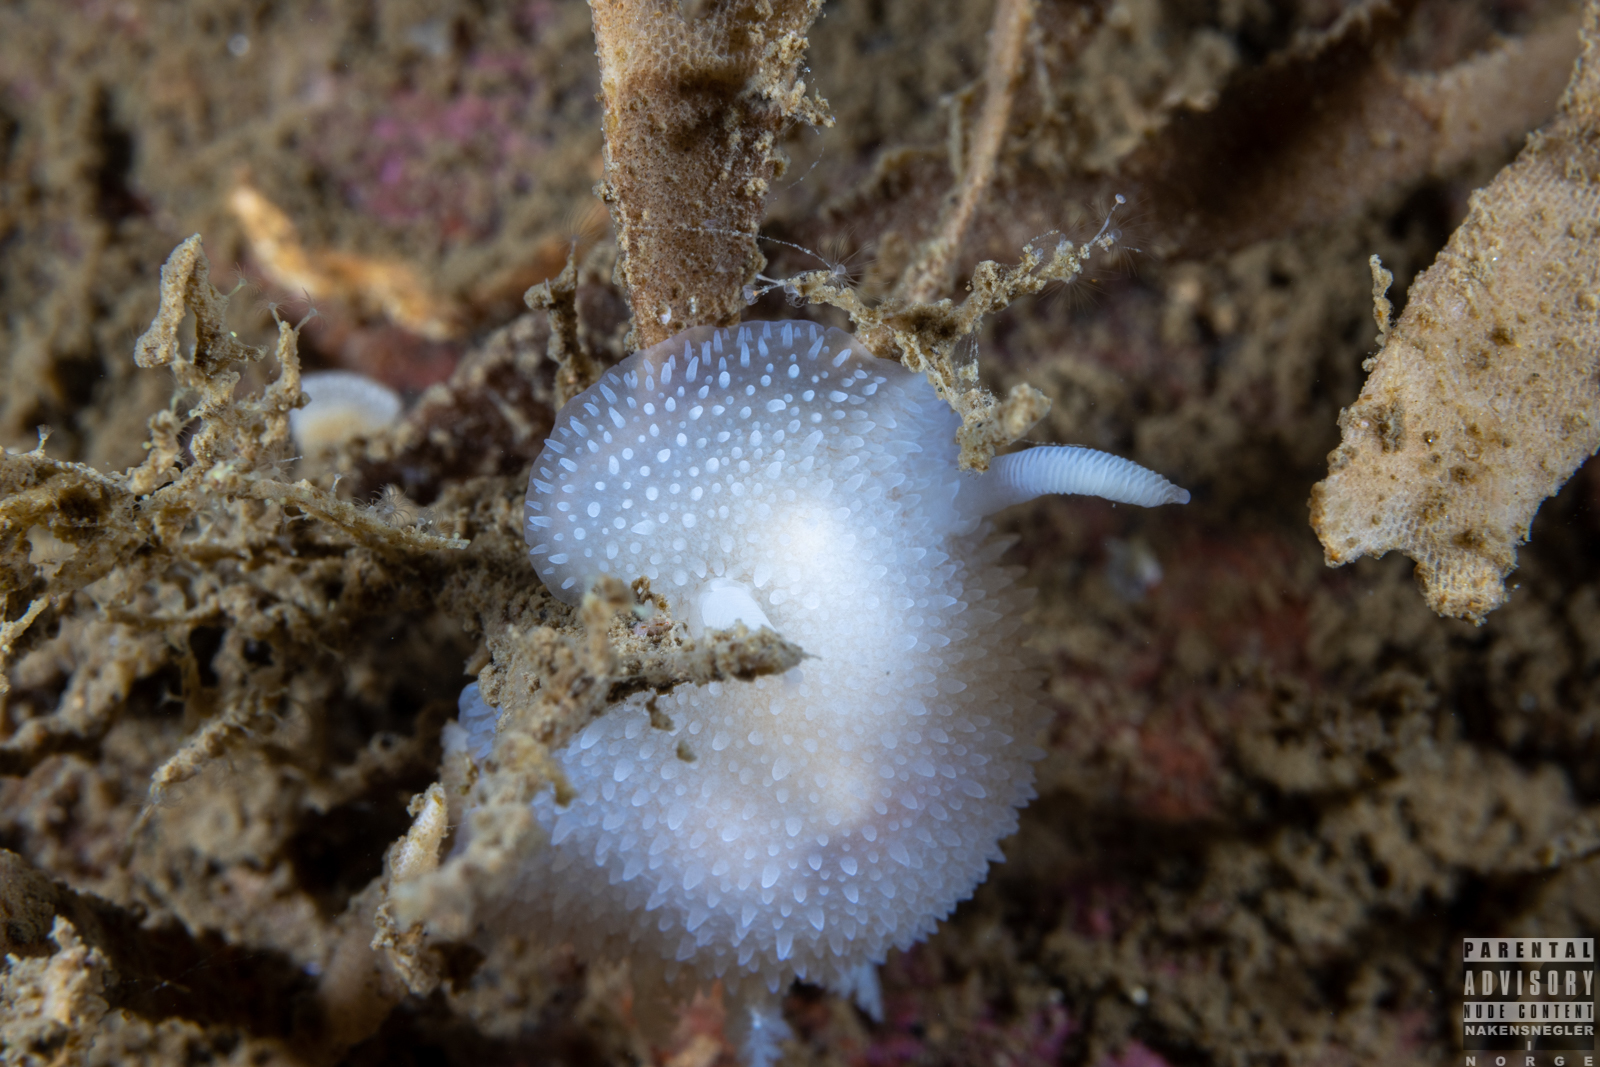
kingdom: Animalia
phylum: Mollusca
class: Gastropoda
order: Nudibranchia
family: Onchidorididae
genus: Acanthodoris
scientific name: Acanthodoris pilosa
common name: Hairy spiny doris
